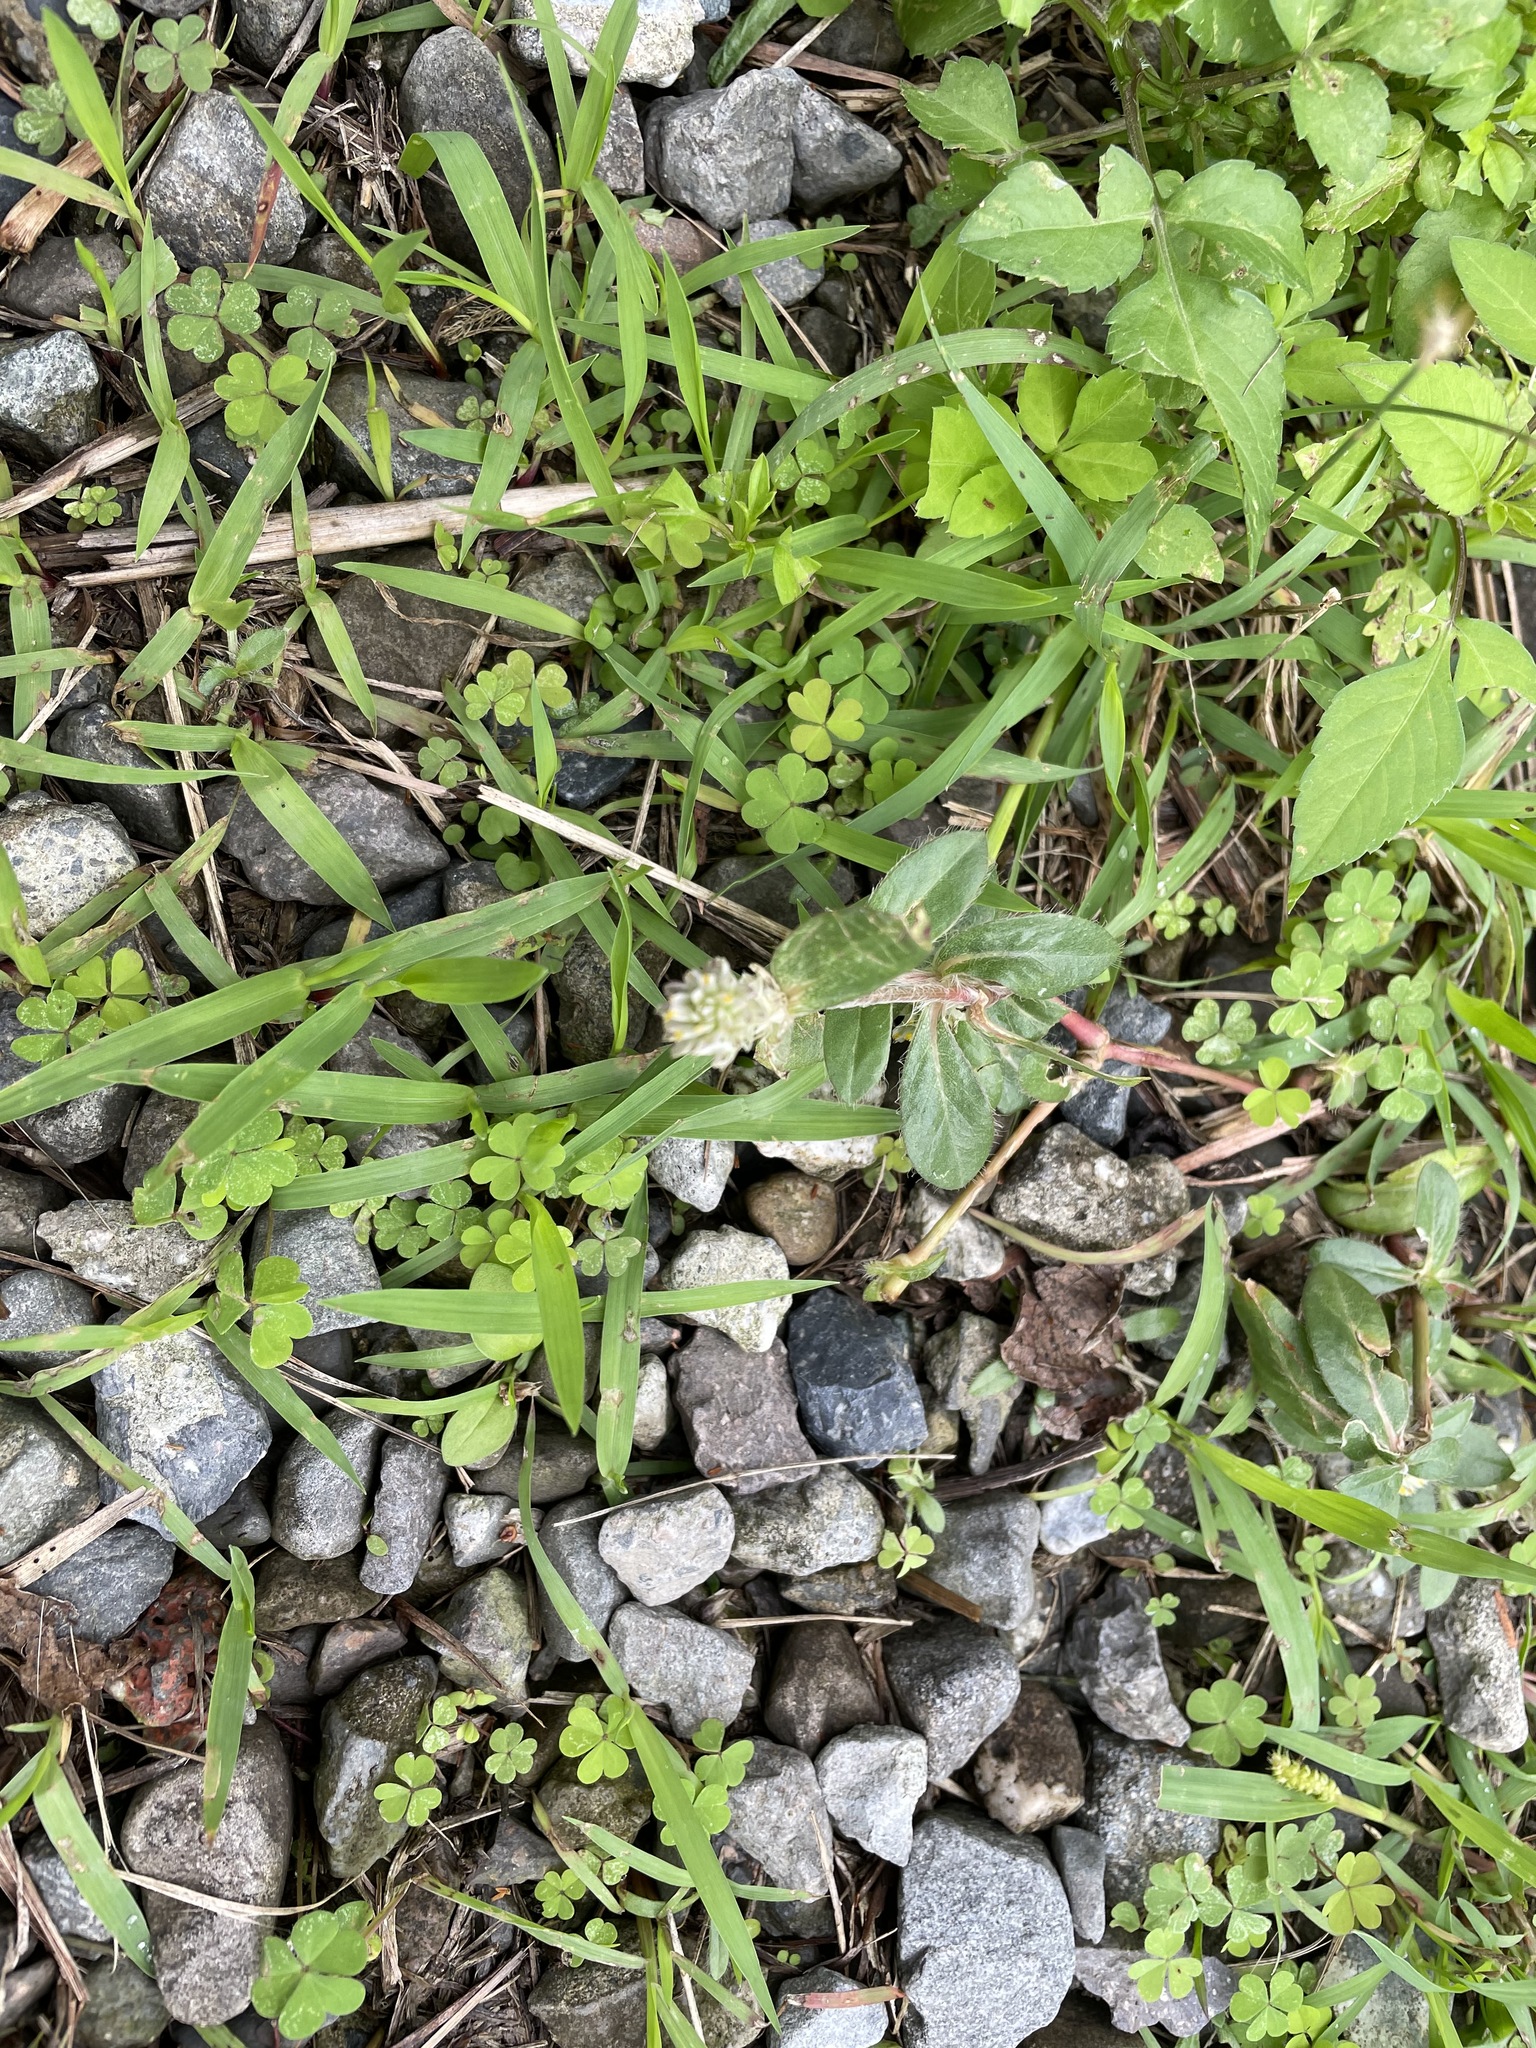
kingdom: Plantae
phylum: Tracheophyta
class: Magnoliopsida
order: Caryophyllales
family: Amaranthaceae
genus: Gomphrena
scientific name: Gomphrena celosioides
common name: Gomphrena-weed
